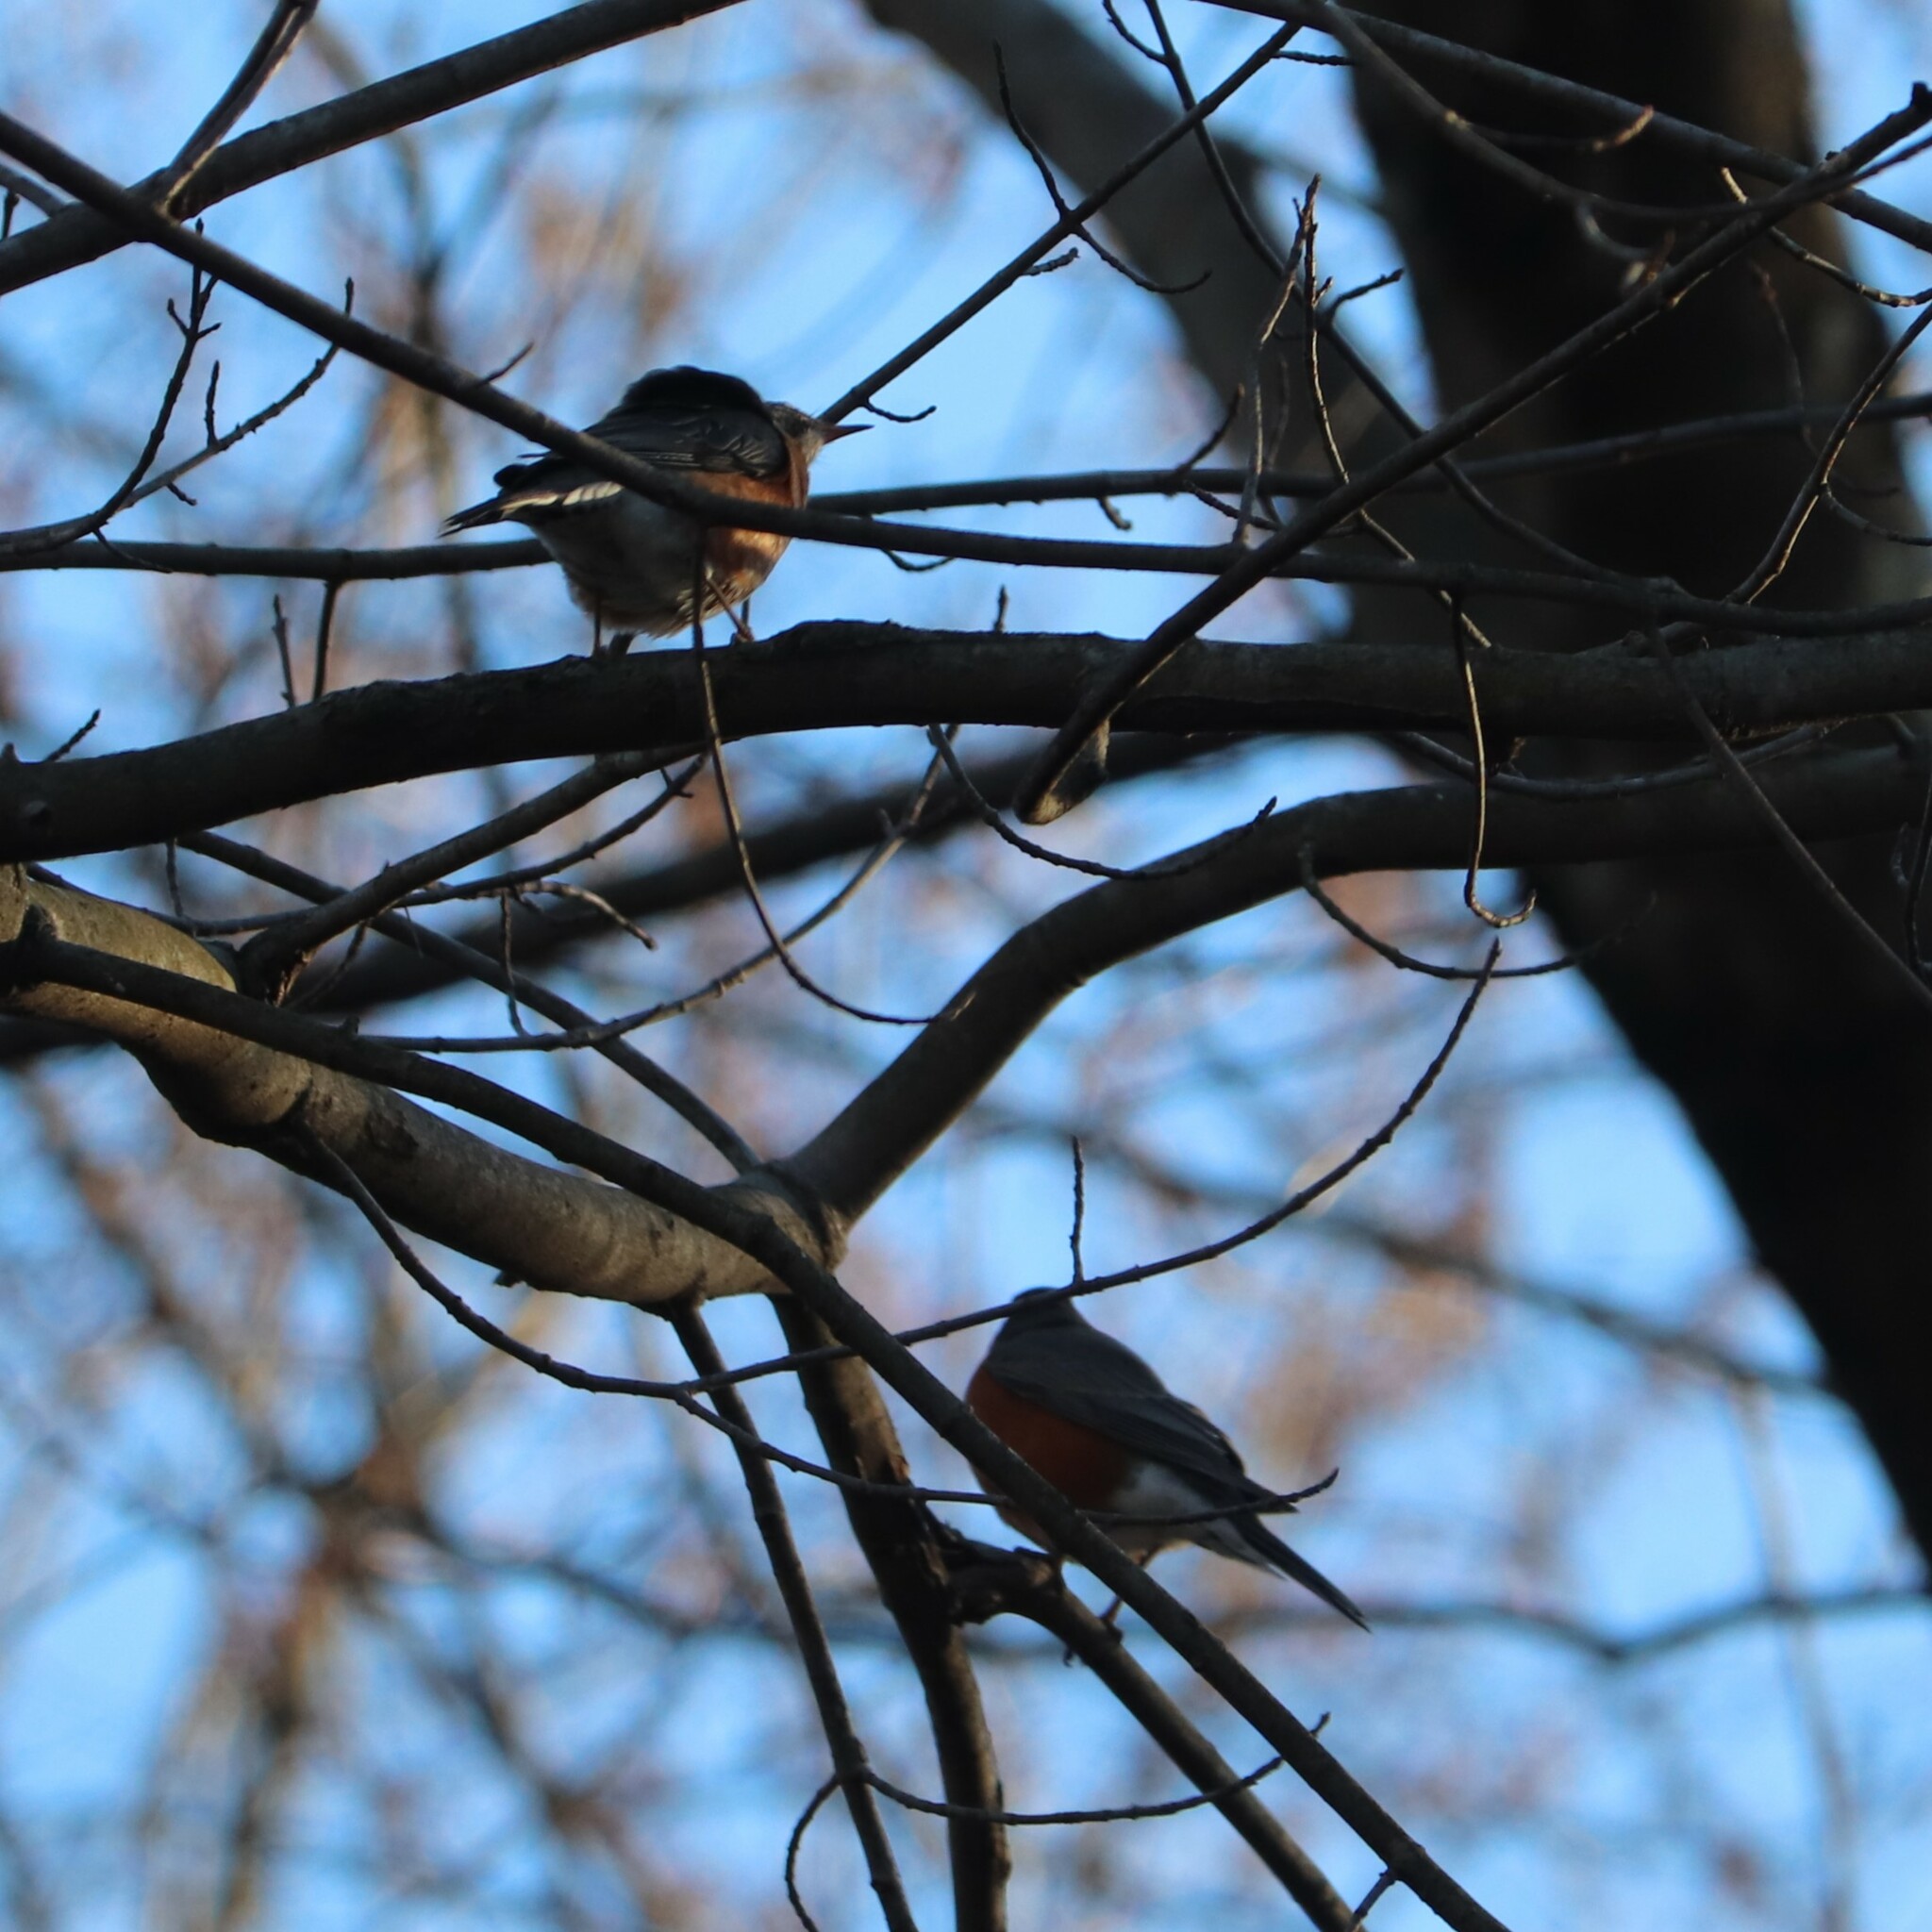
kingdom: Animalia
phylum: Chordata
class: Aves
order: Passeriformes
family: Turdidae
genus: Turdus
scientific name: Turdus migratorius
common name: American robin
